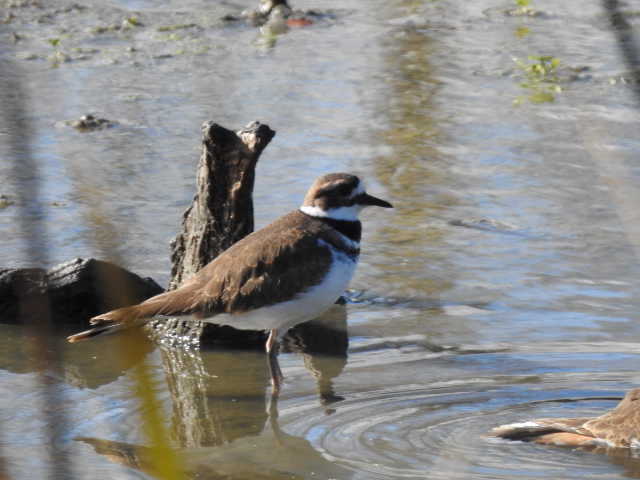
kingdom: Animalia
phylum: Chordata
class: Aves
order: Charadriiformes
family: Charadriidae
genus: Charadrius
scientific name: Charadrius vociferus
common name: Killdeer
